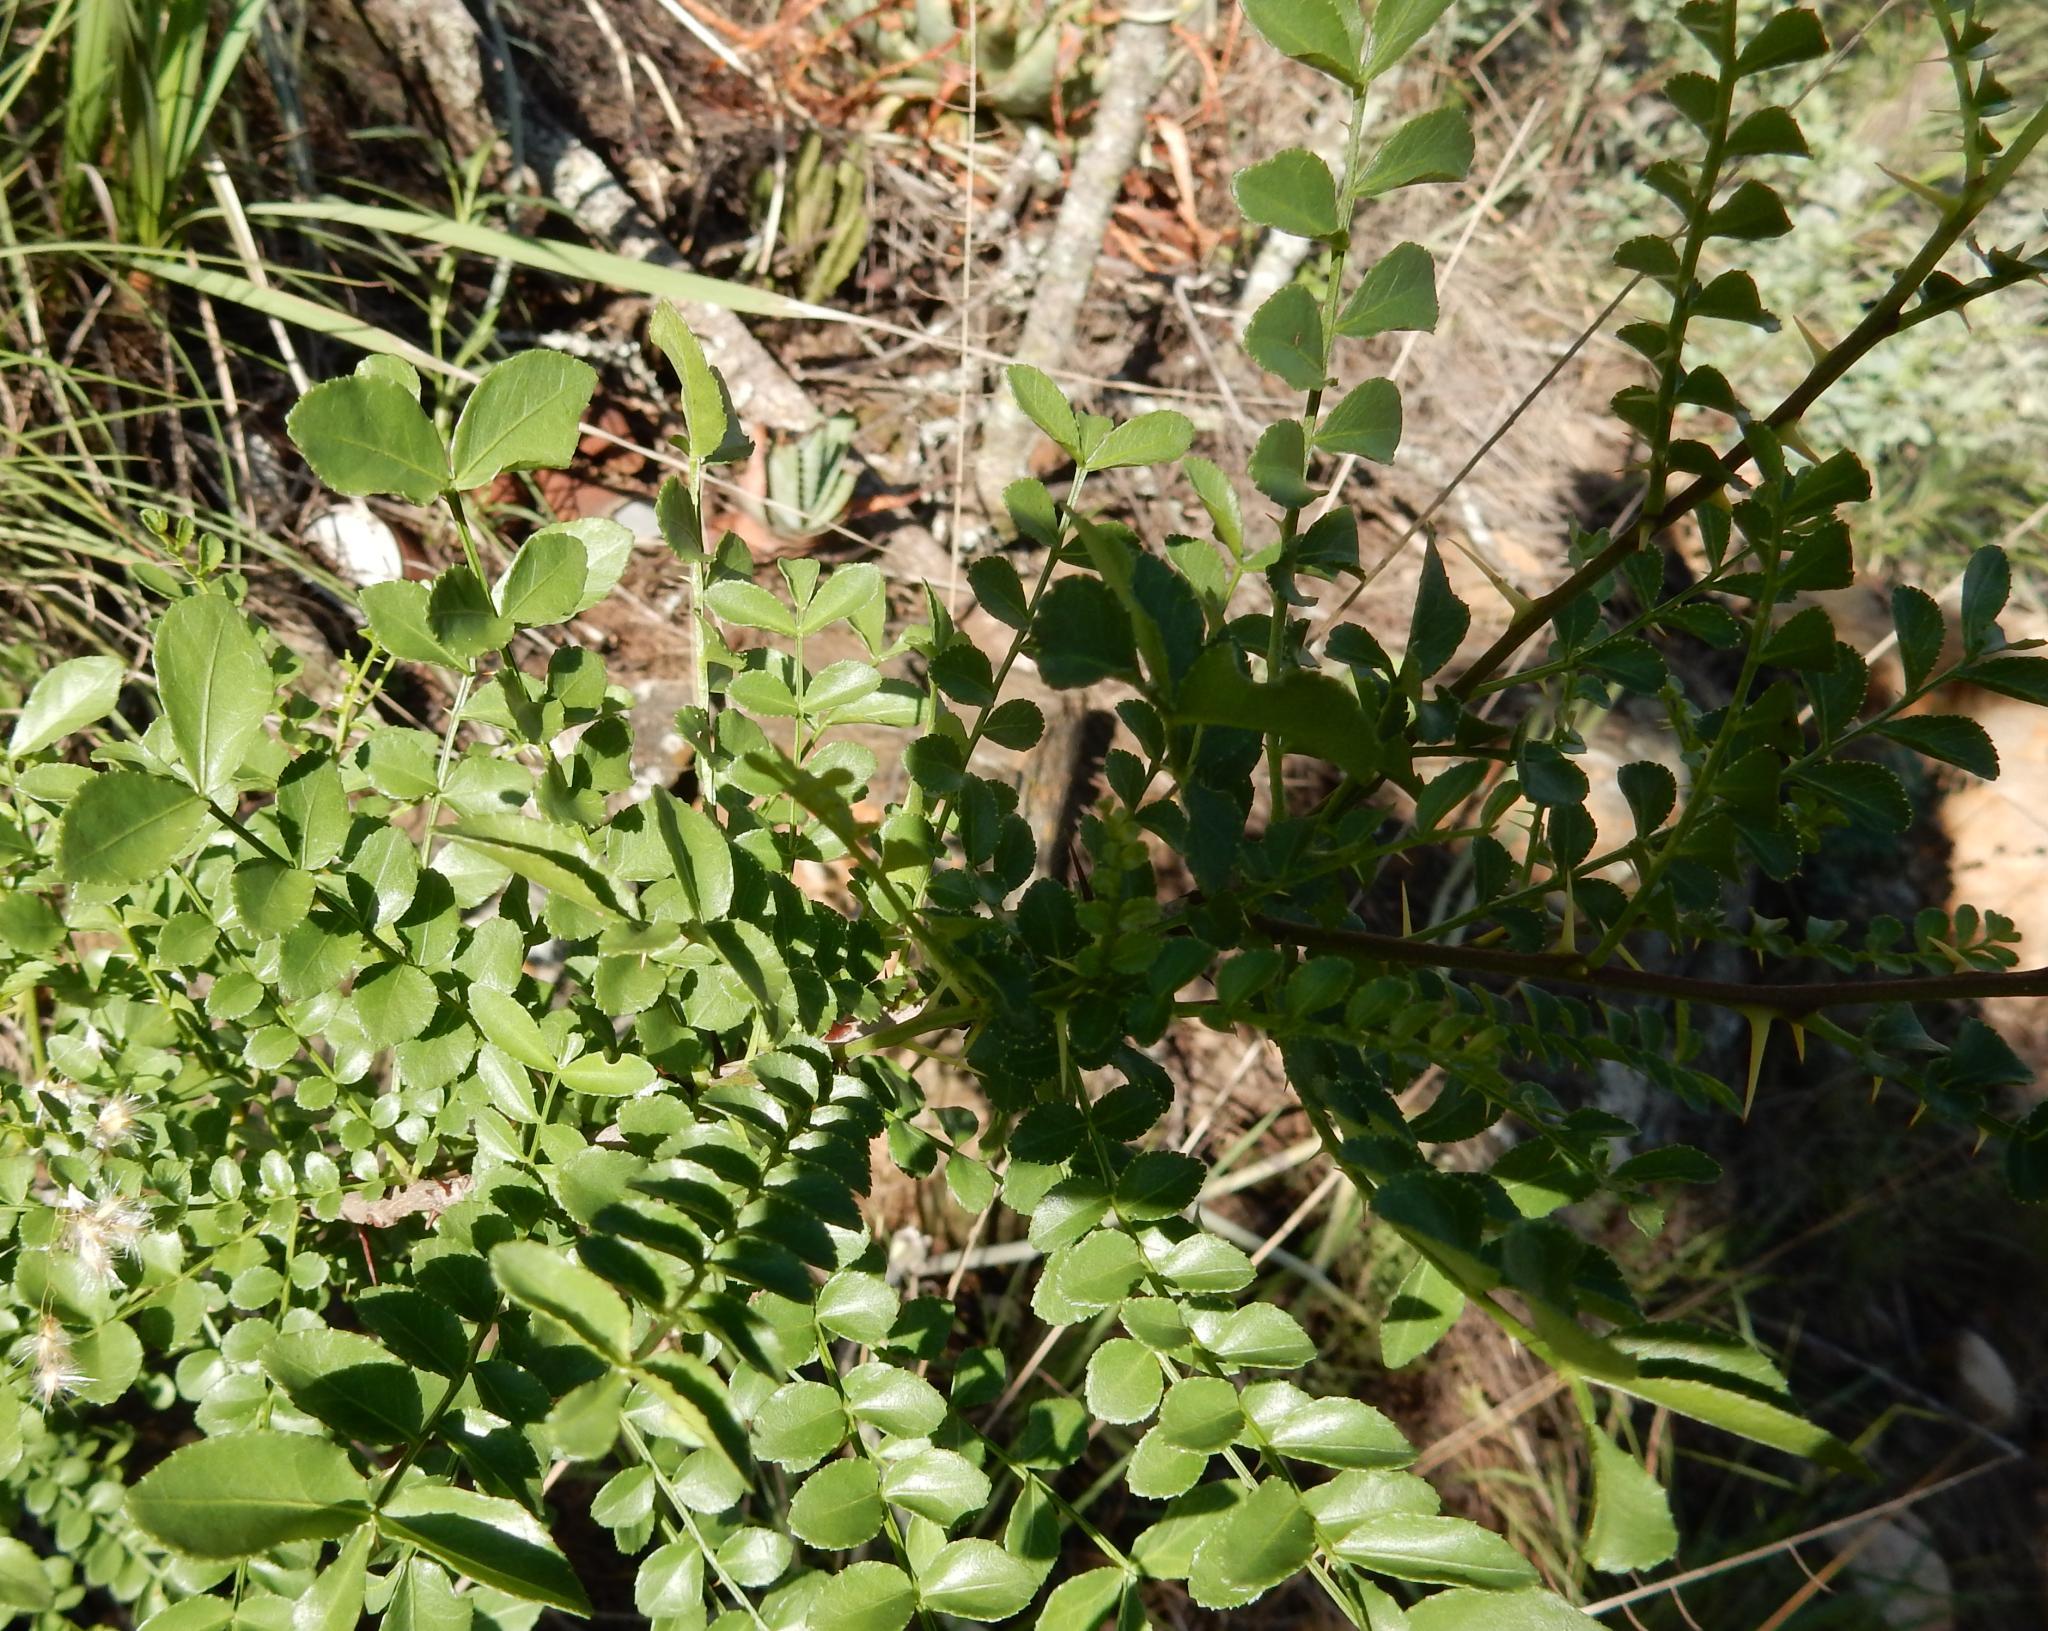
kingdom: Plantae
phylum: Tracheophyta
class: Magnoliopsida
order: Sapindales
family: Rutaceae
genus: Zanthoxylum
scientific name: Zanthoxylum capense
